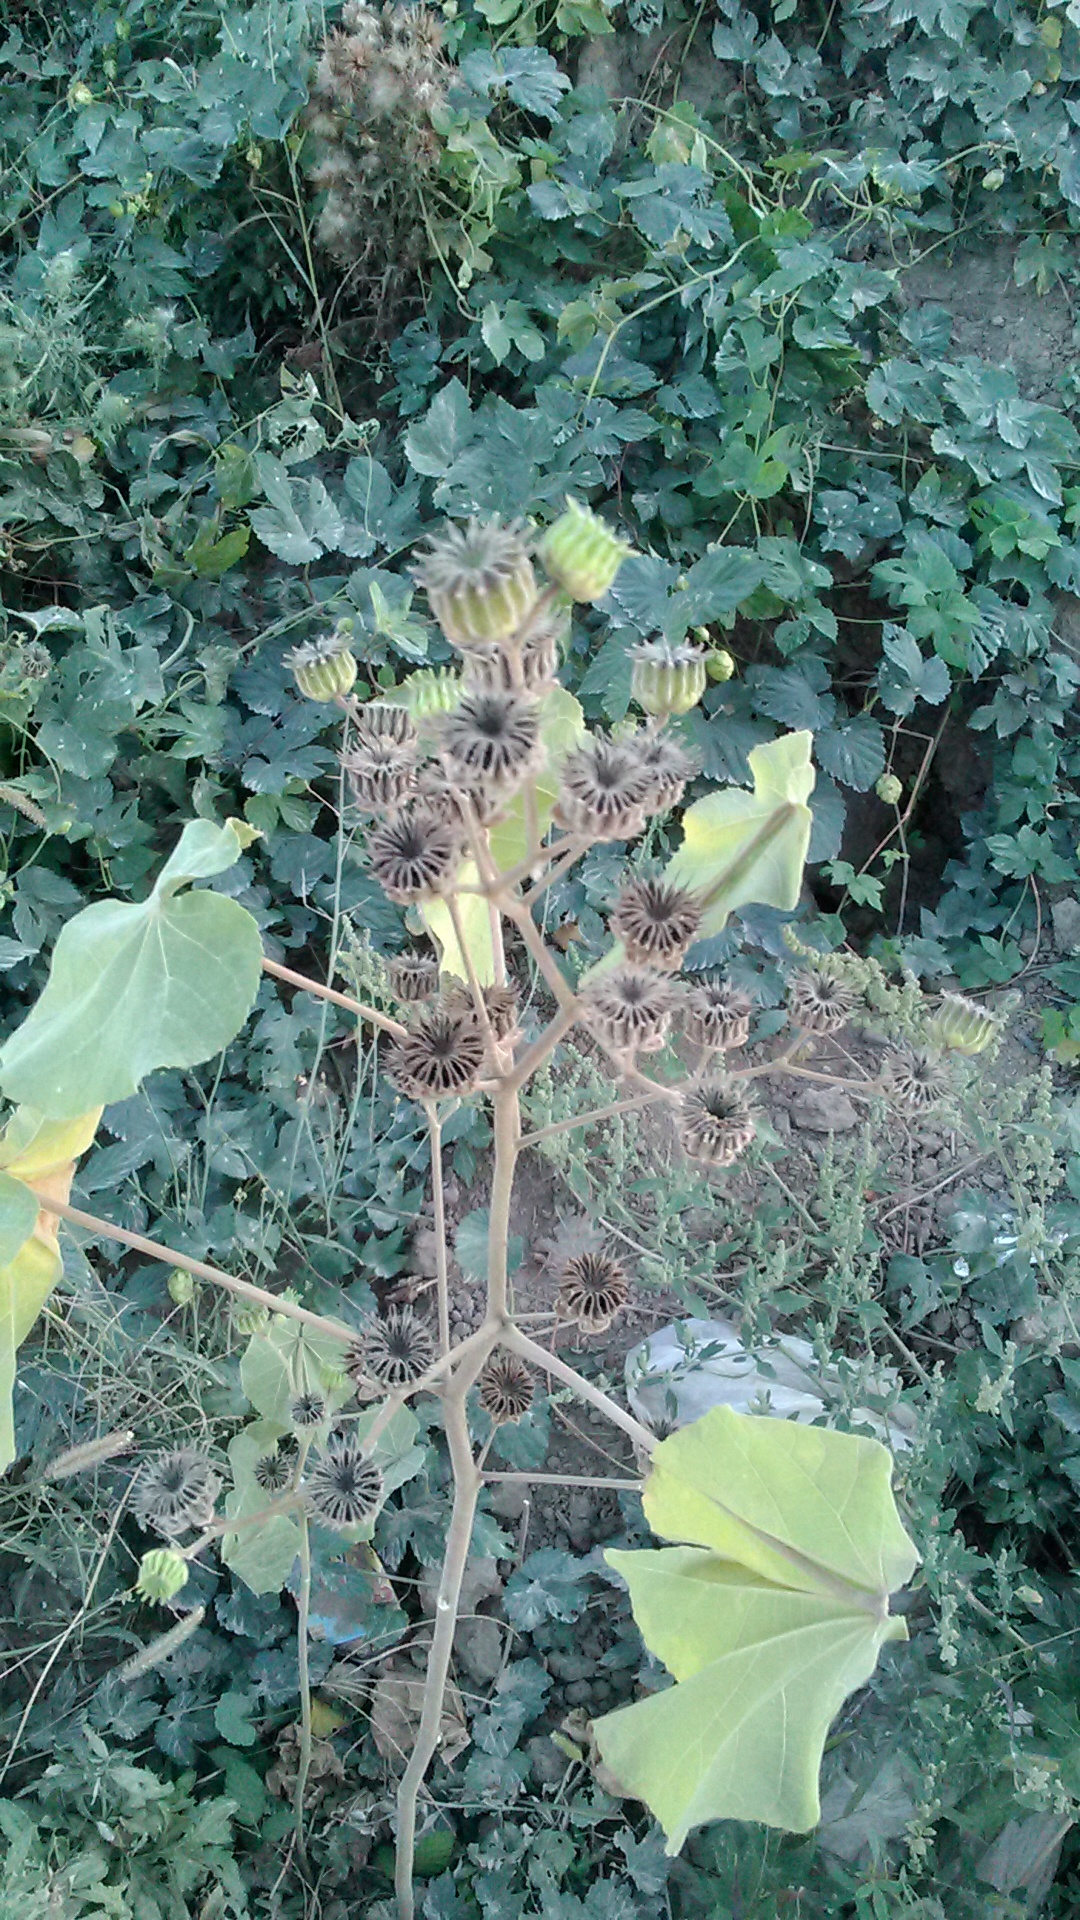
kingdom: Plantae
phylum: Tracheophyta
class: Magnoliopsida
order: Malvales
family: Malvaceae
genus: Abutilon
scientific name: Abutilon theophrasti
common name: Velvetleaf
